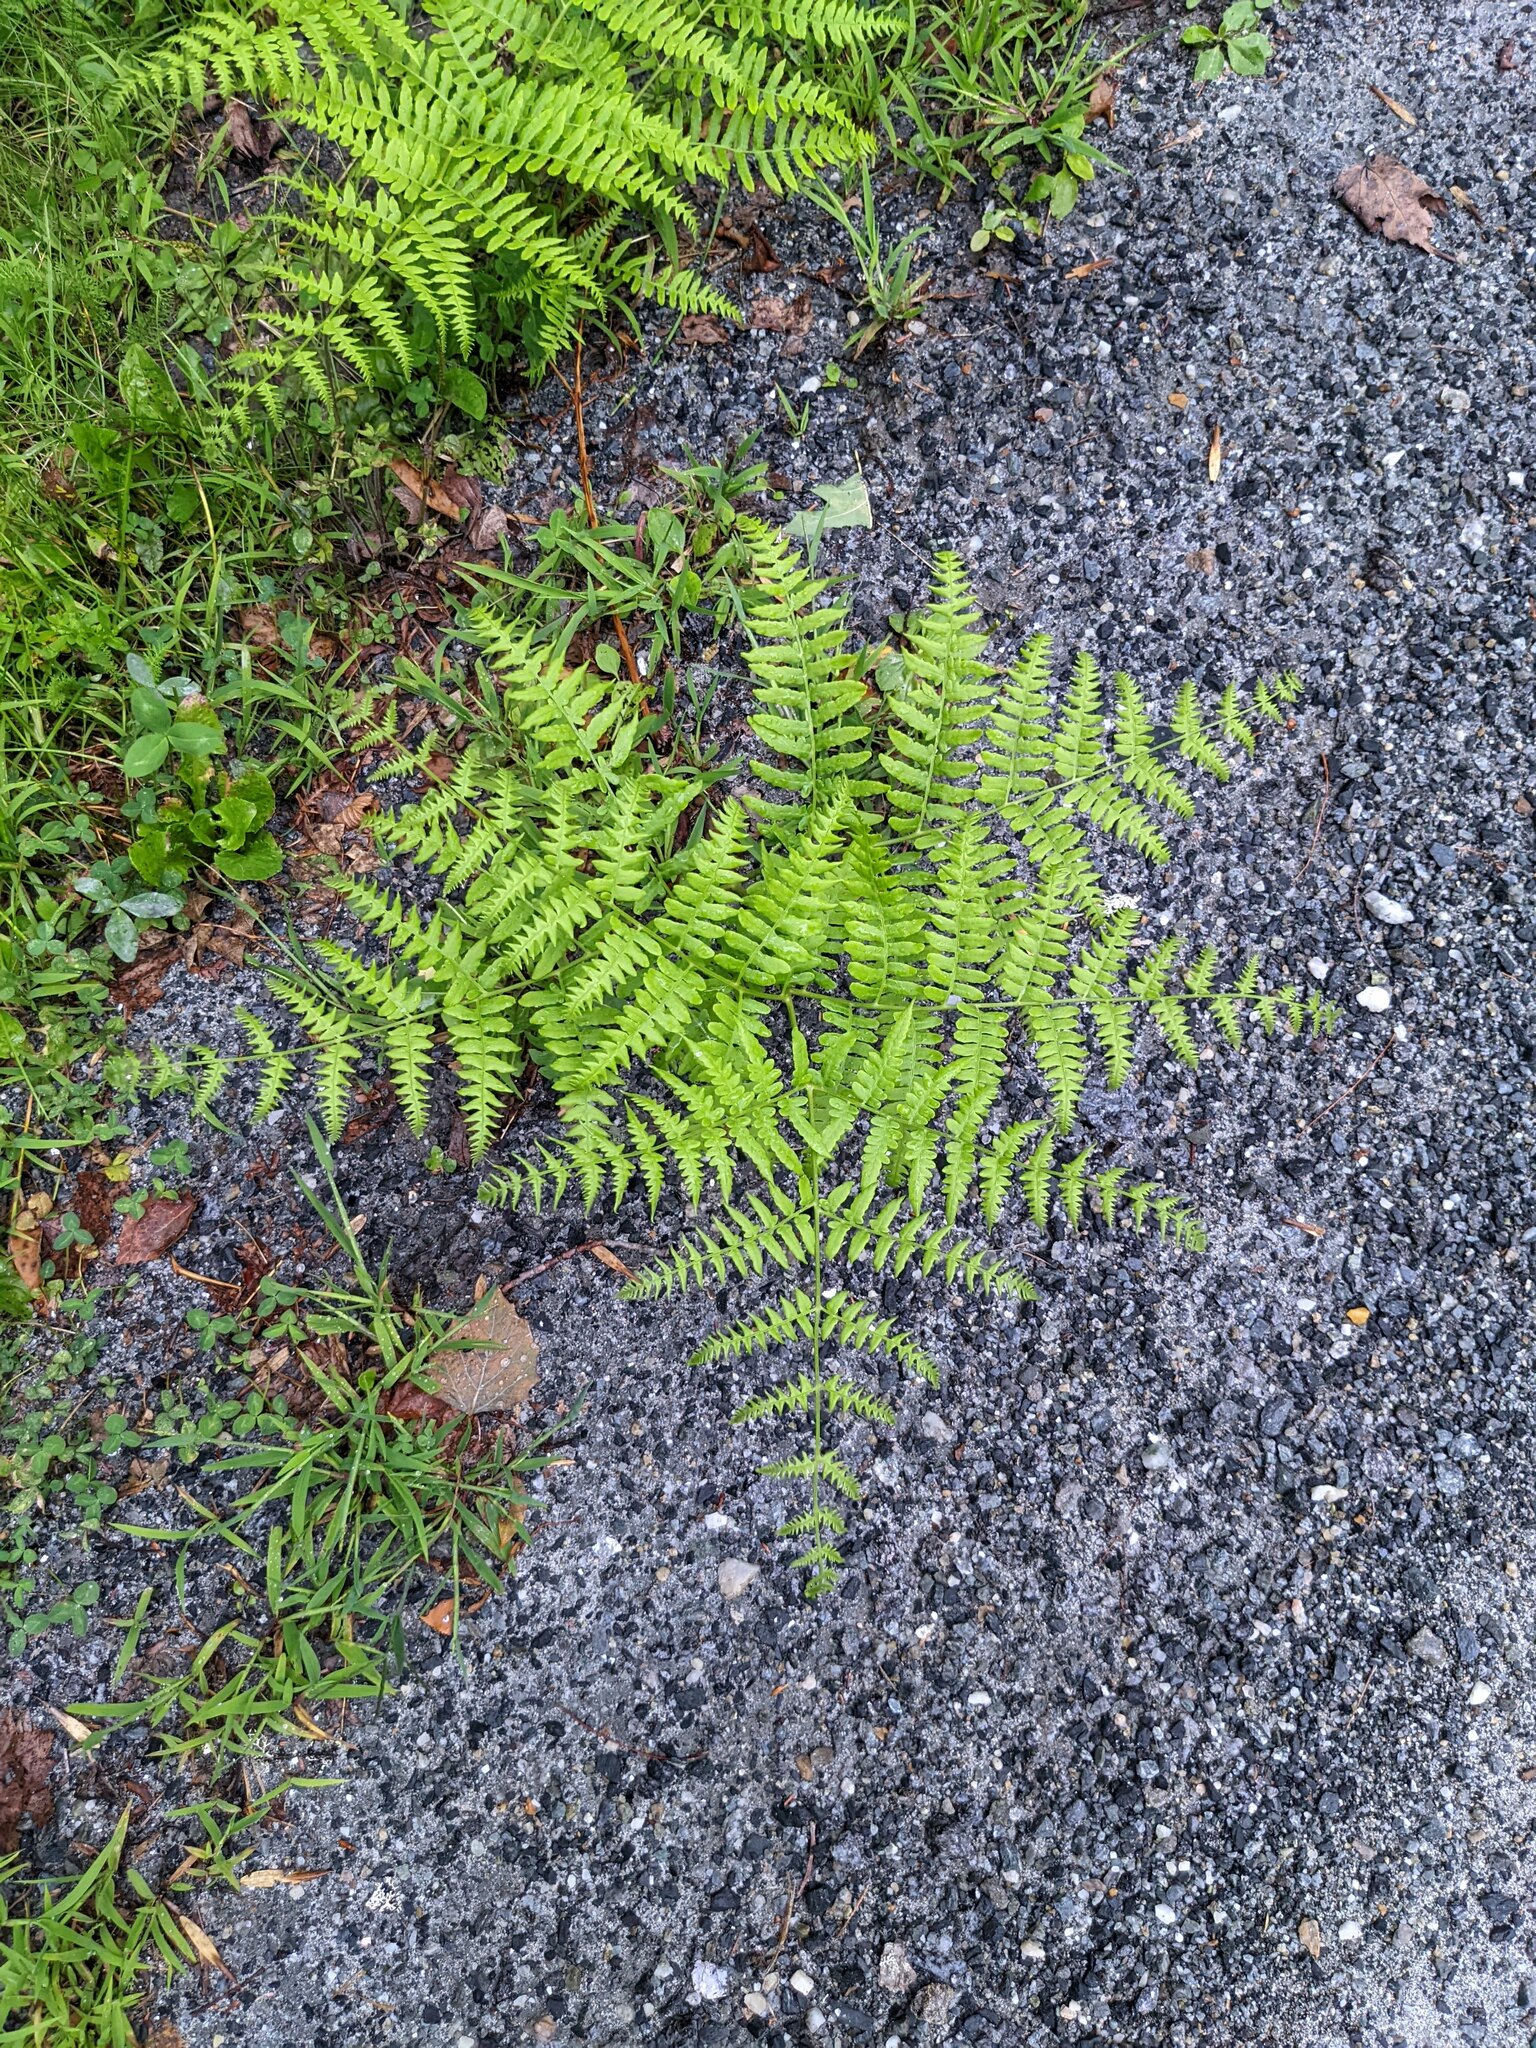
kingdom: Plantae
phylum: Tracheophyta
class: Polypodiopsida
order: Polypodiales
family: Dennstaedtiaceae
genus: Pteridium
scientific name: Pteridium aquilinum
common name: Bracken
